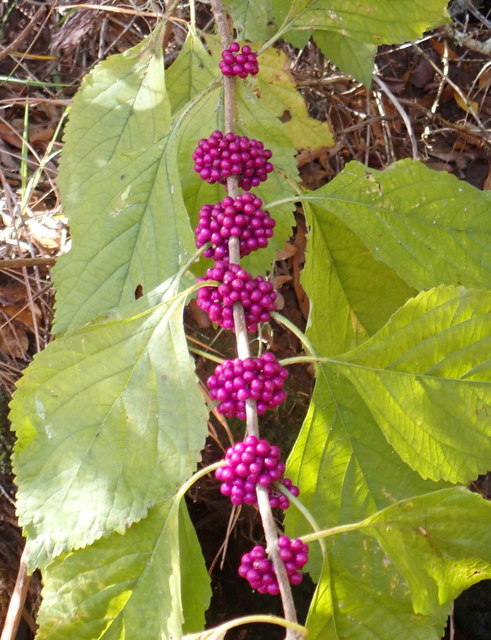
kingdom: Plantae
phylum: Tracheophyta
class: Magnoliopsida
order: Lamiales
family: Lamiaceae
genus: Callicarpa
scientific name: Callicarpa americana
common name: American beautyberry
